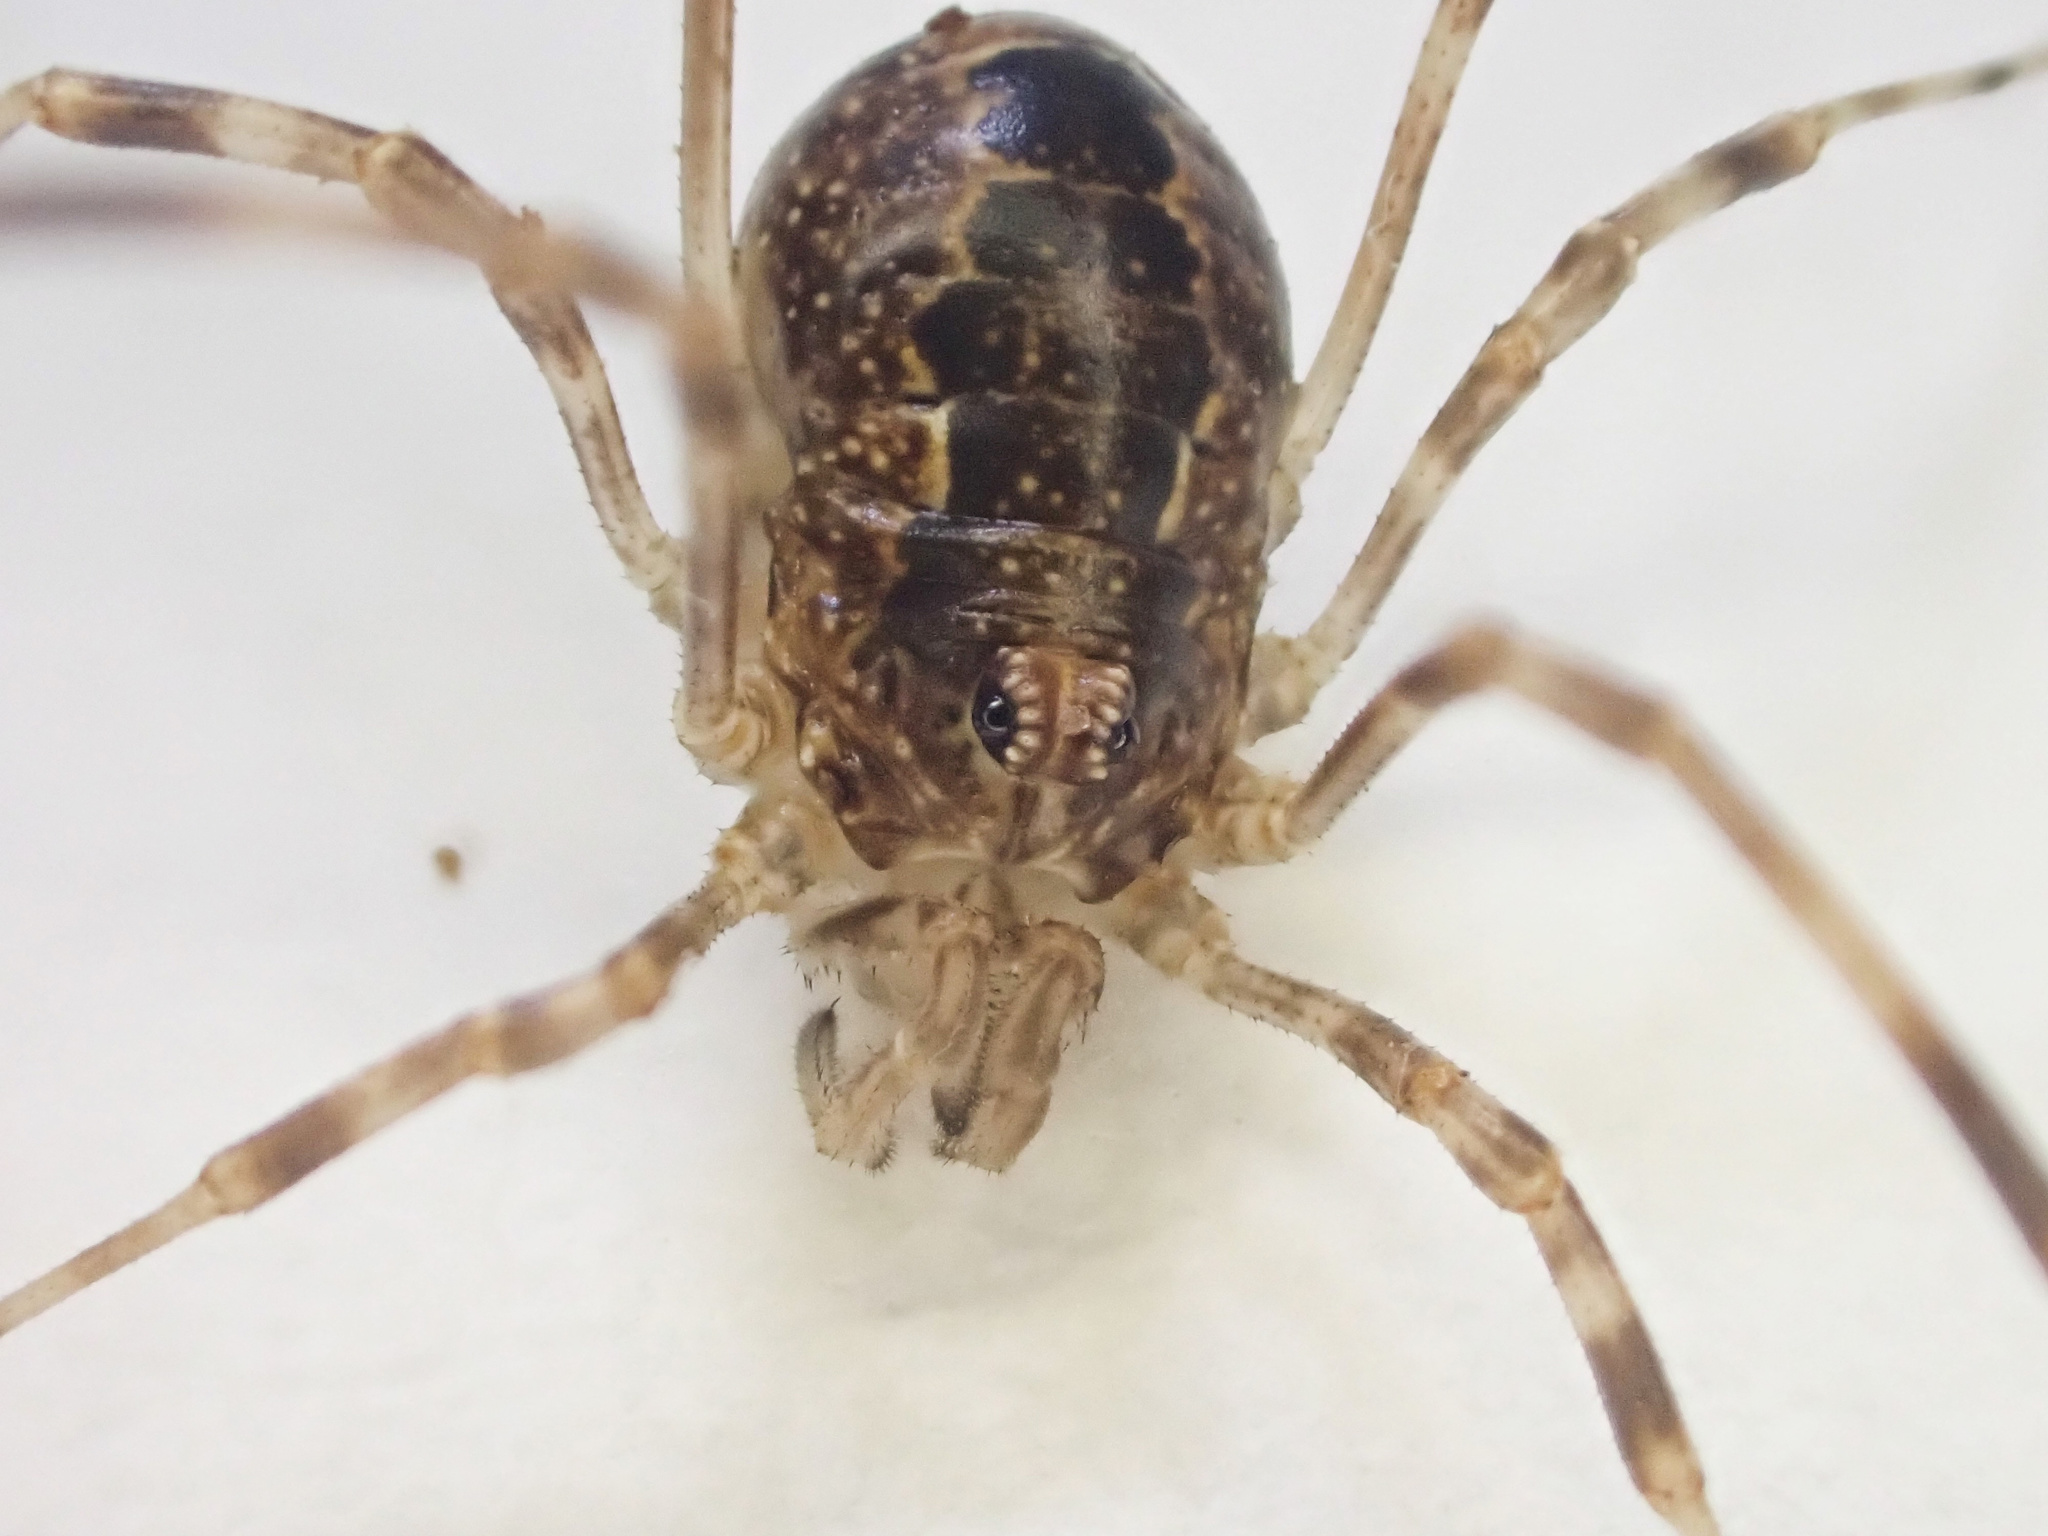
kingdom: Animalia
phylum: Arthropoda
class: Arachnida
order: Opiliones
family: Phalangiidae
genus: Rilaena
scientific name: Rilaena triangularis
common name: Spring harvestman
